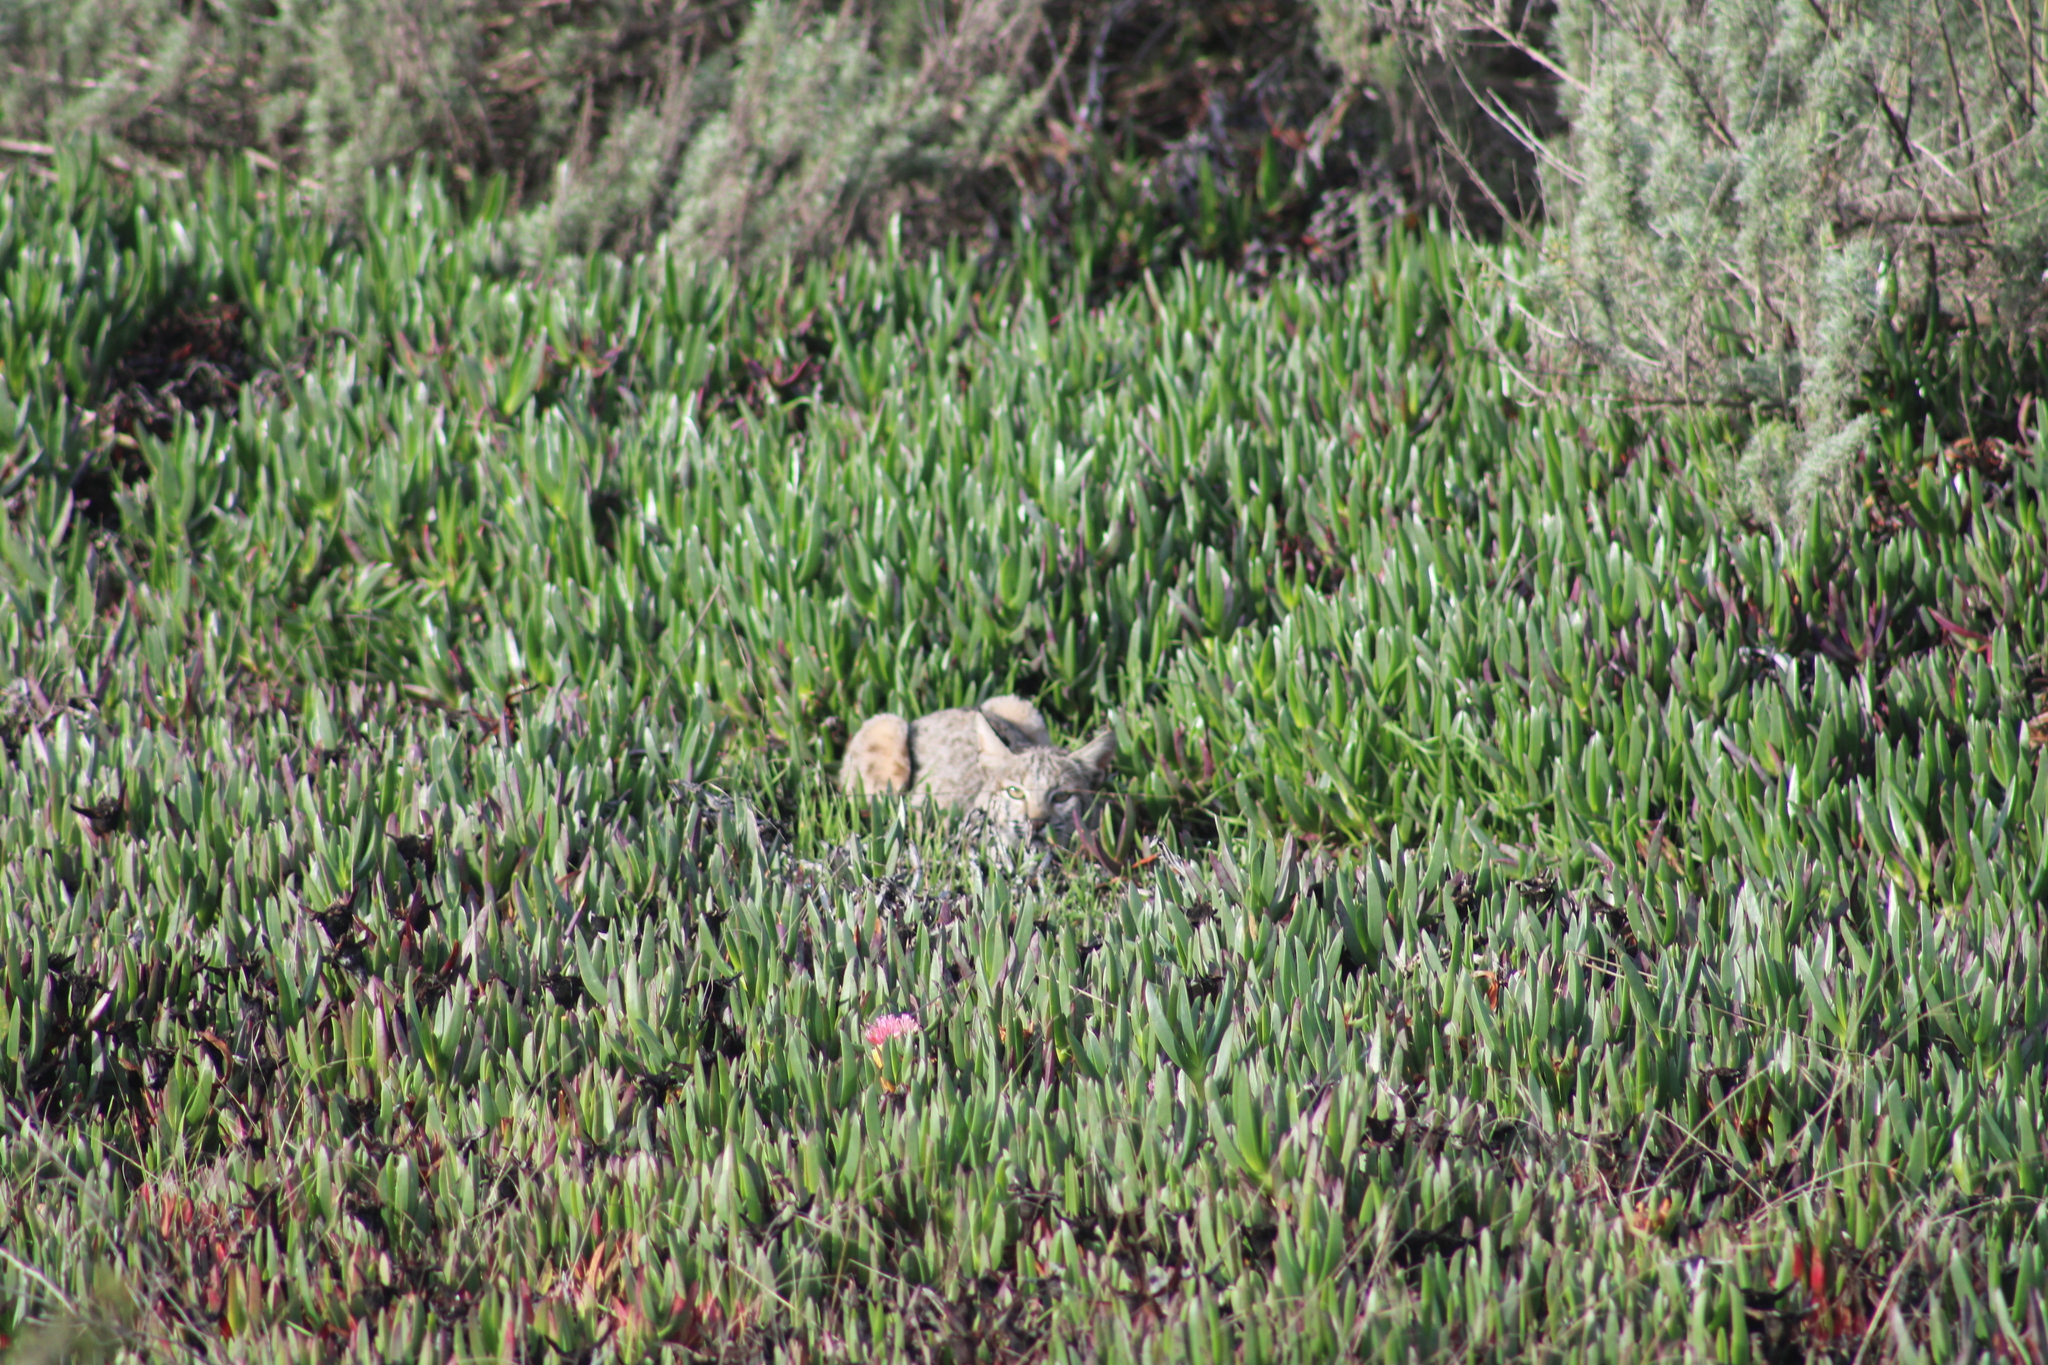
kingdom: Animalia
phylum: Chordata
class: Mammalia
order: Carnivora
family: Felidae
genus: Lynx
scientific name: Lynx rufus
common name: Bobcat
